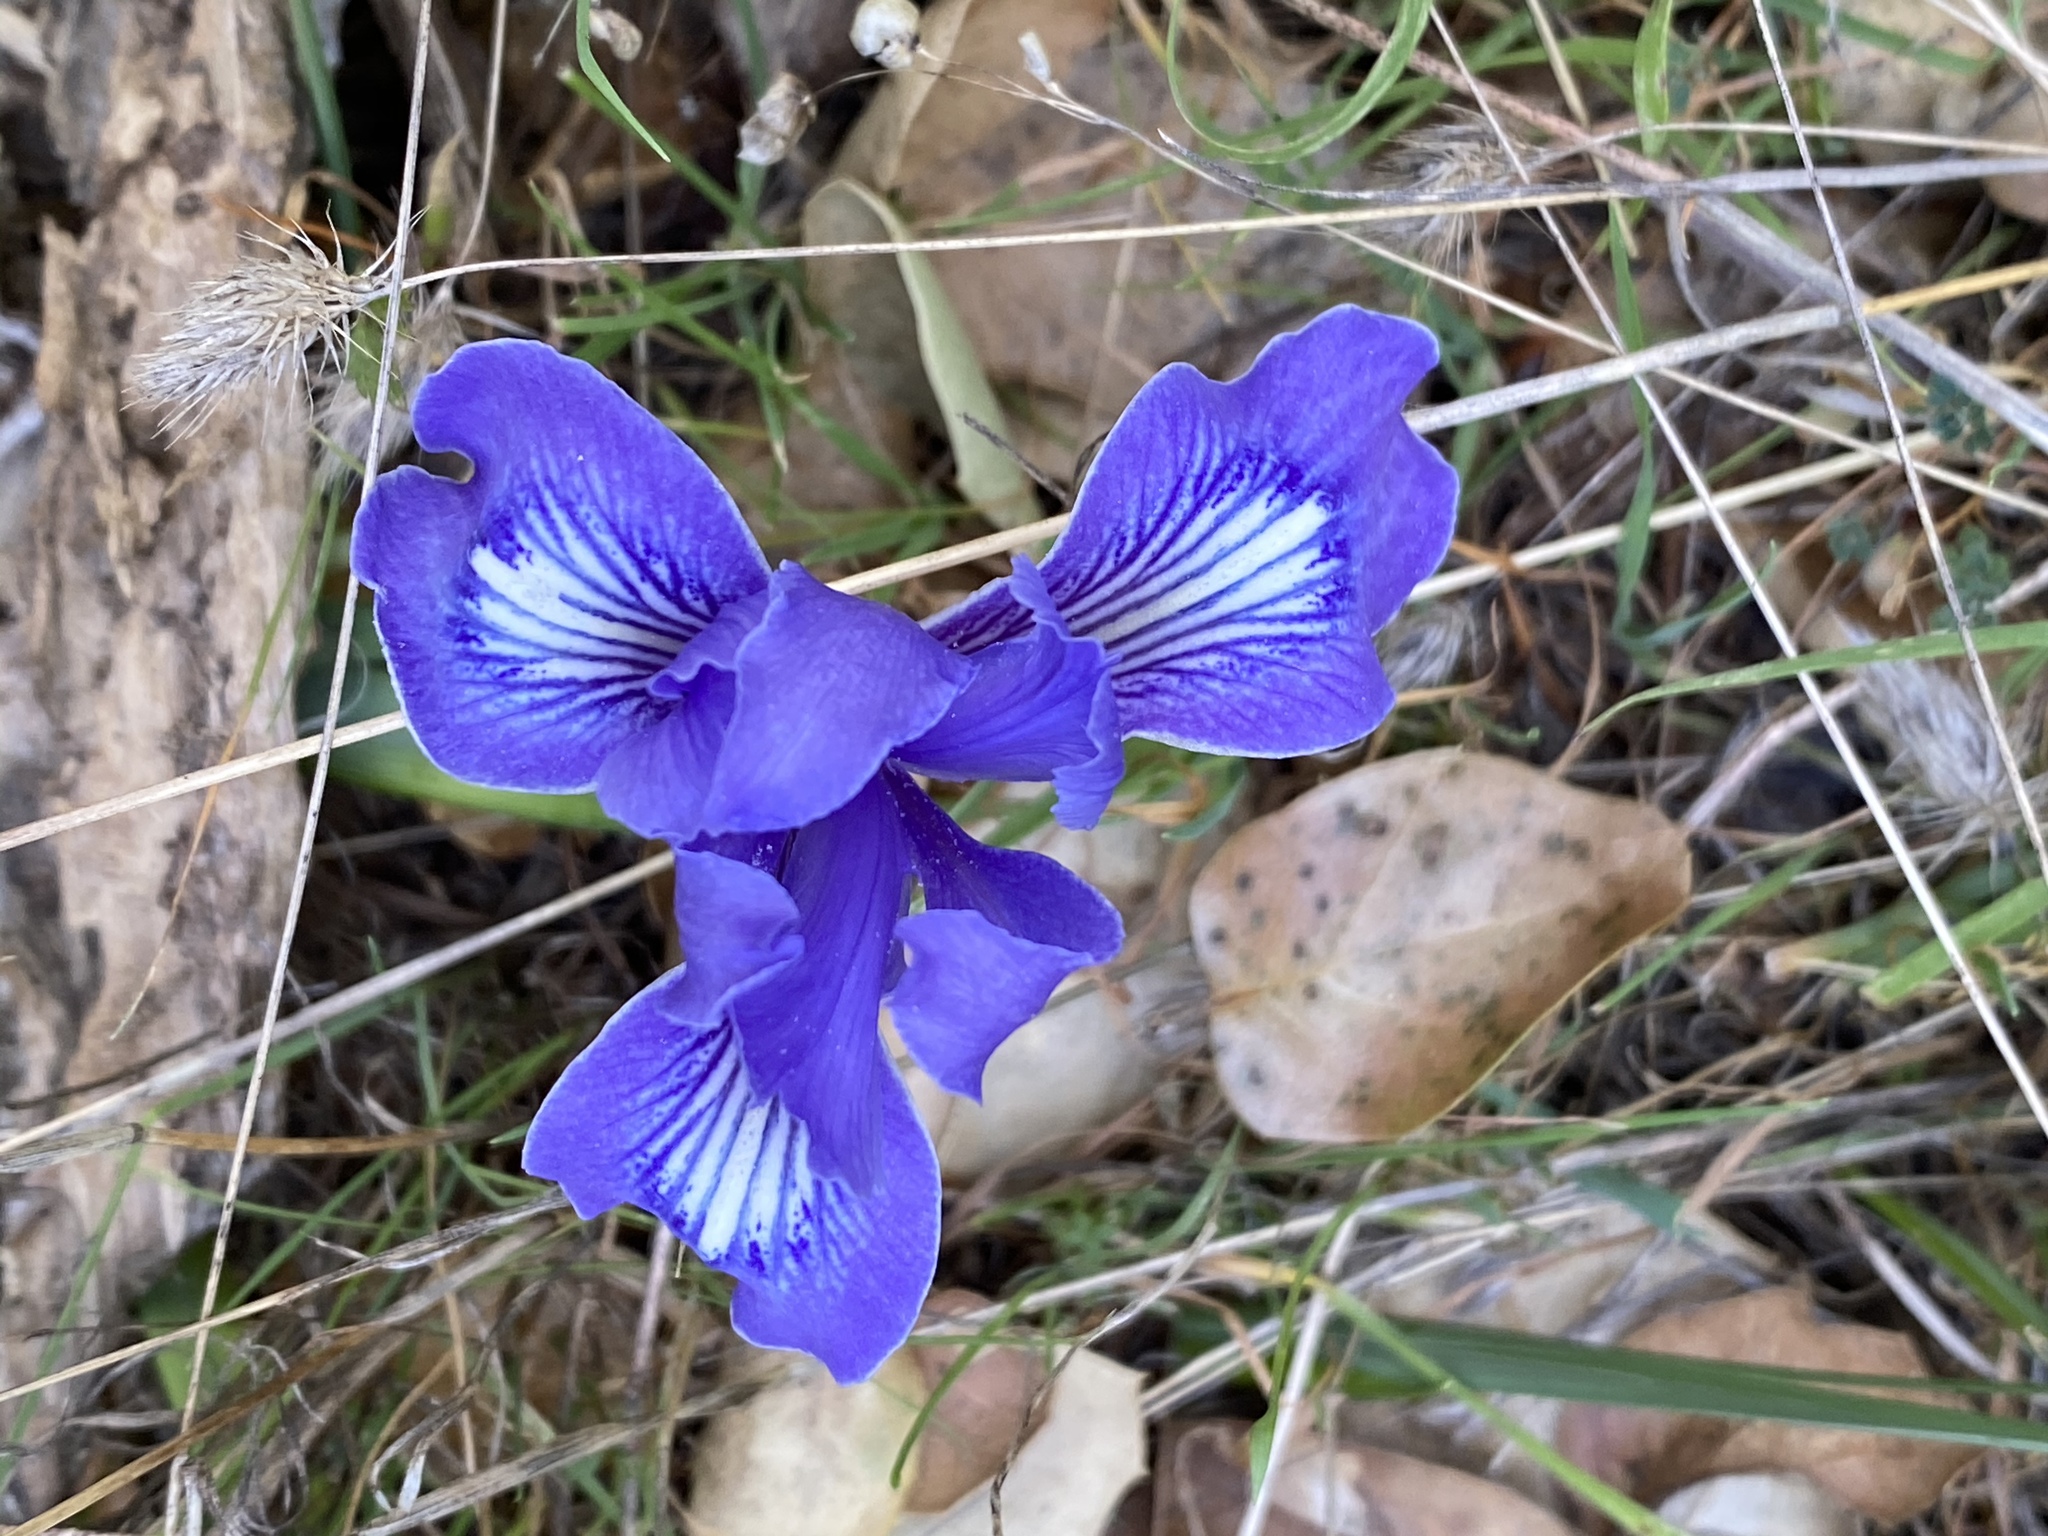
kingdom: Plantae
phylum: Tracheophyta
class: Liliopsida
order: Asparagales
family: Iridaceae
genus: Iris
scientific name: Iris macrosiphon
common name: Ground iris
